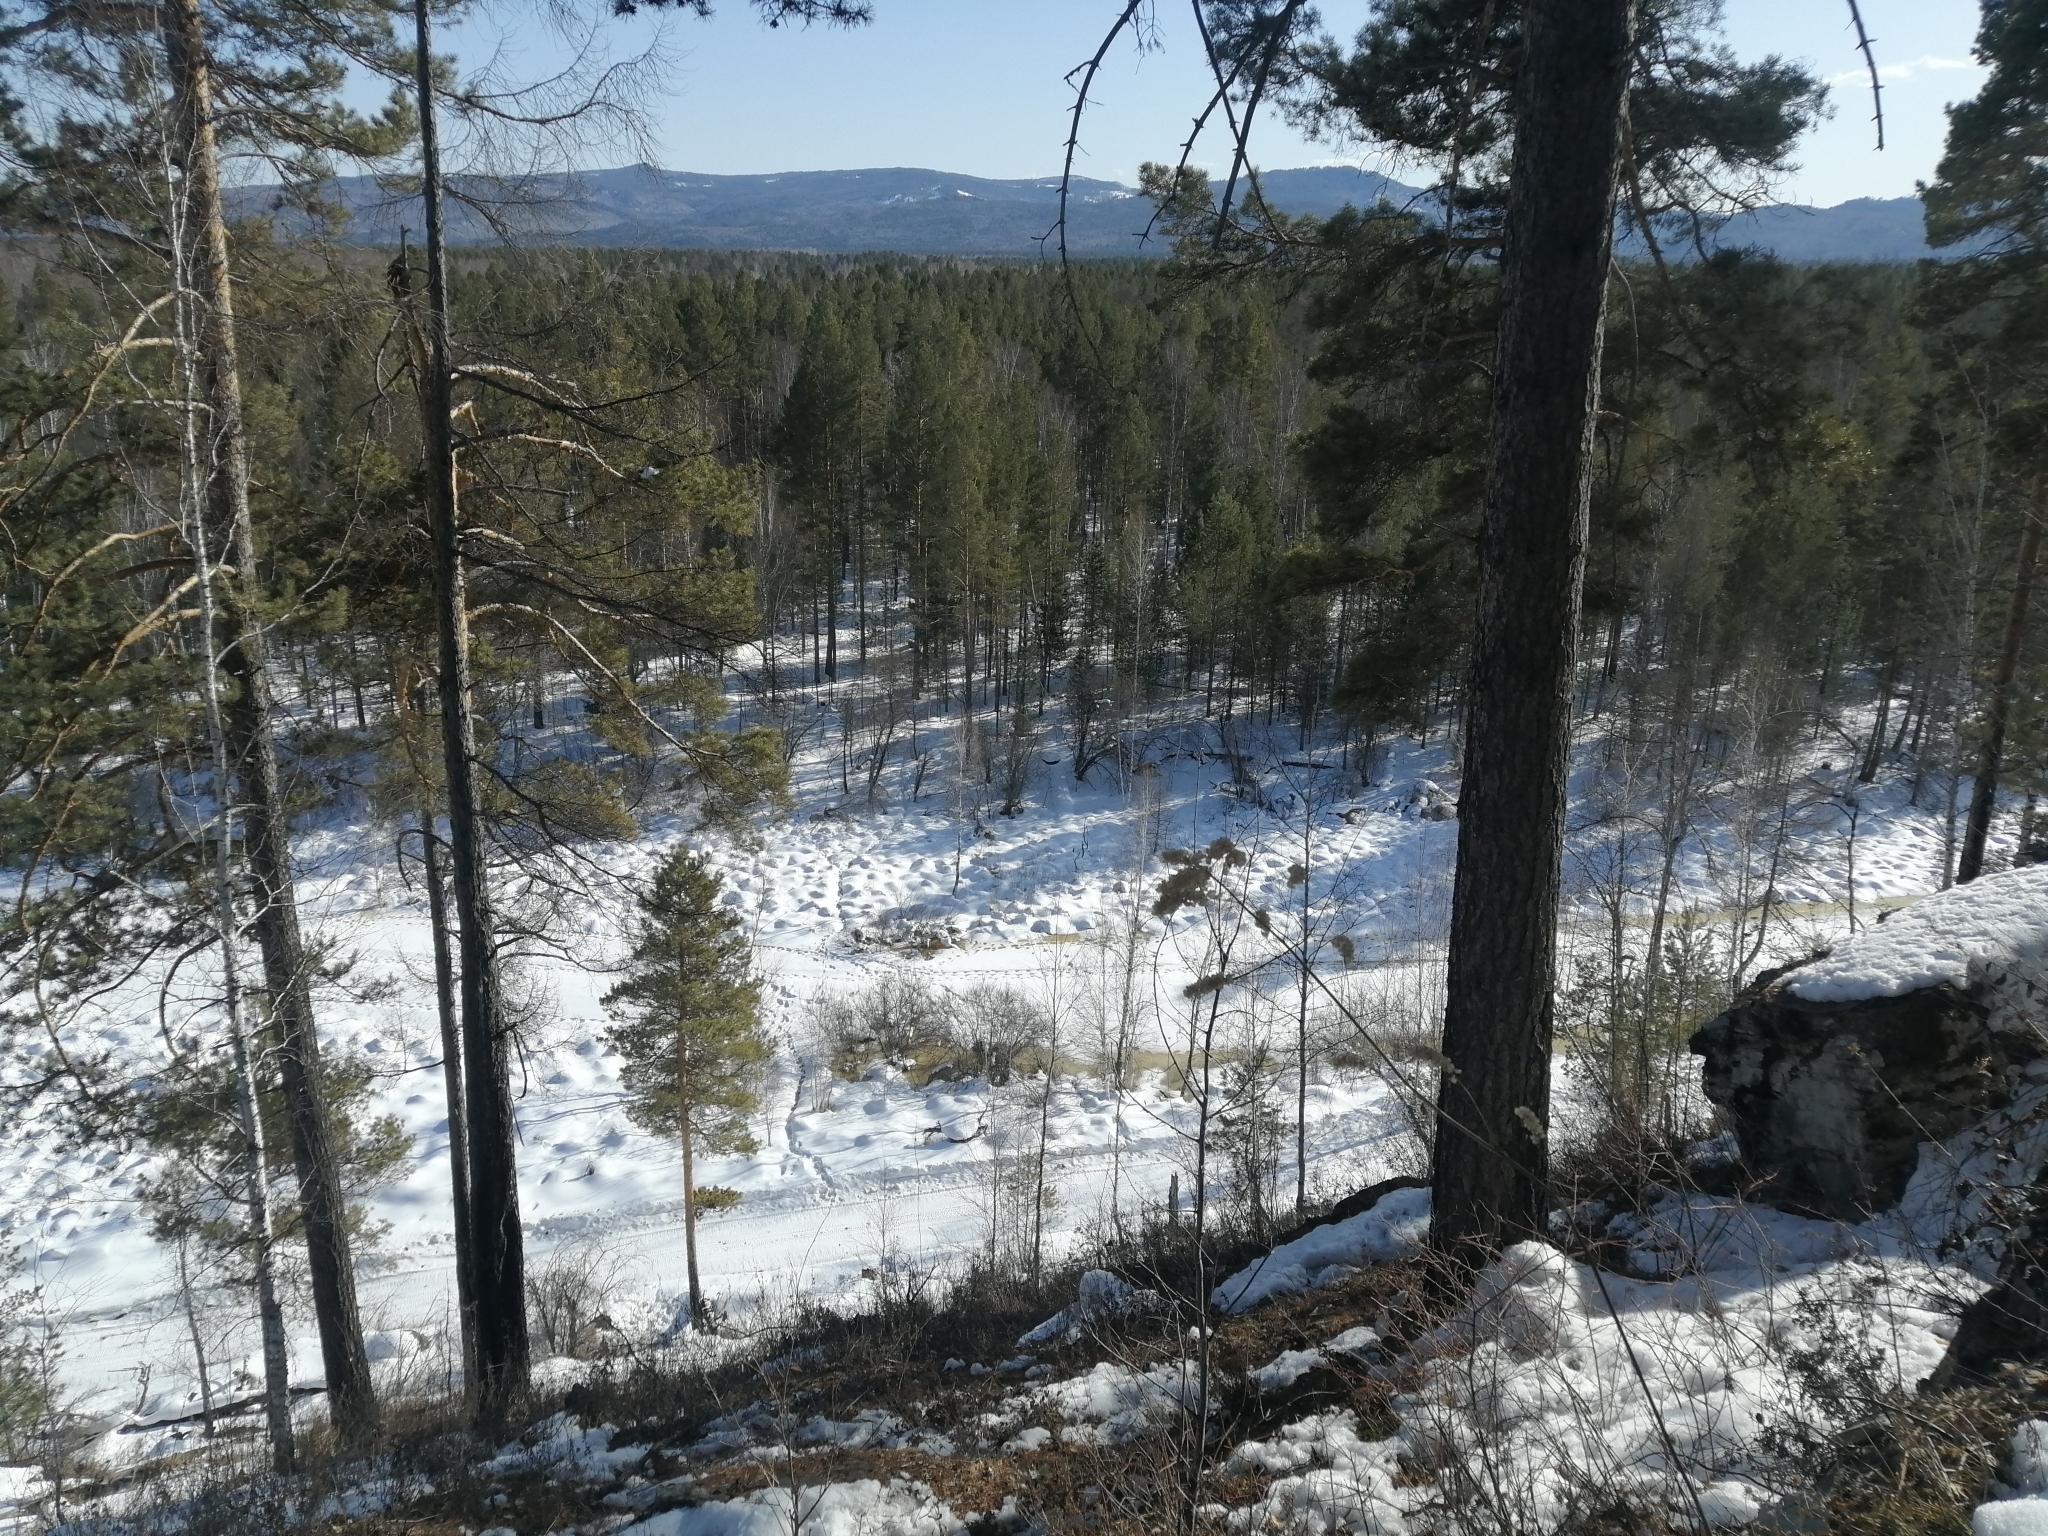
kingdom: Plantae
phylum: Tracheophyta
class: Pinopsida
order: Pinales
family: Pinaceae
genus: Pinus
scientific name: Pinus sylvestris
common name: Scots pine
